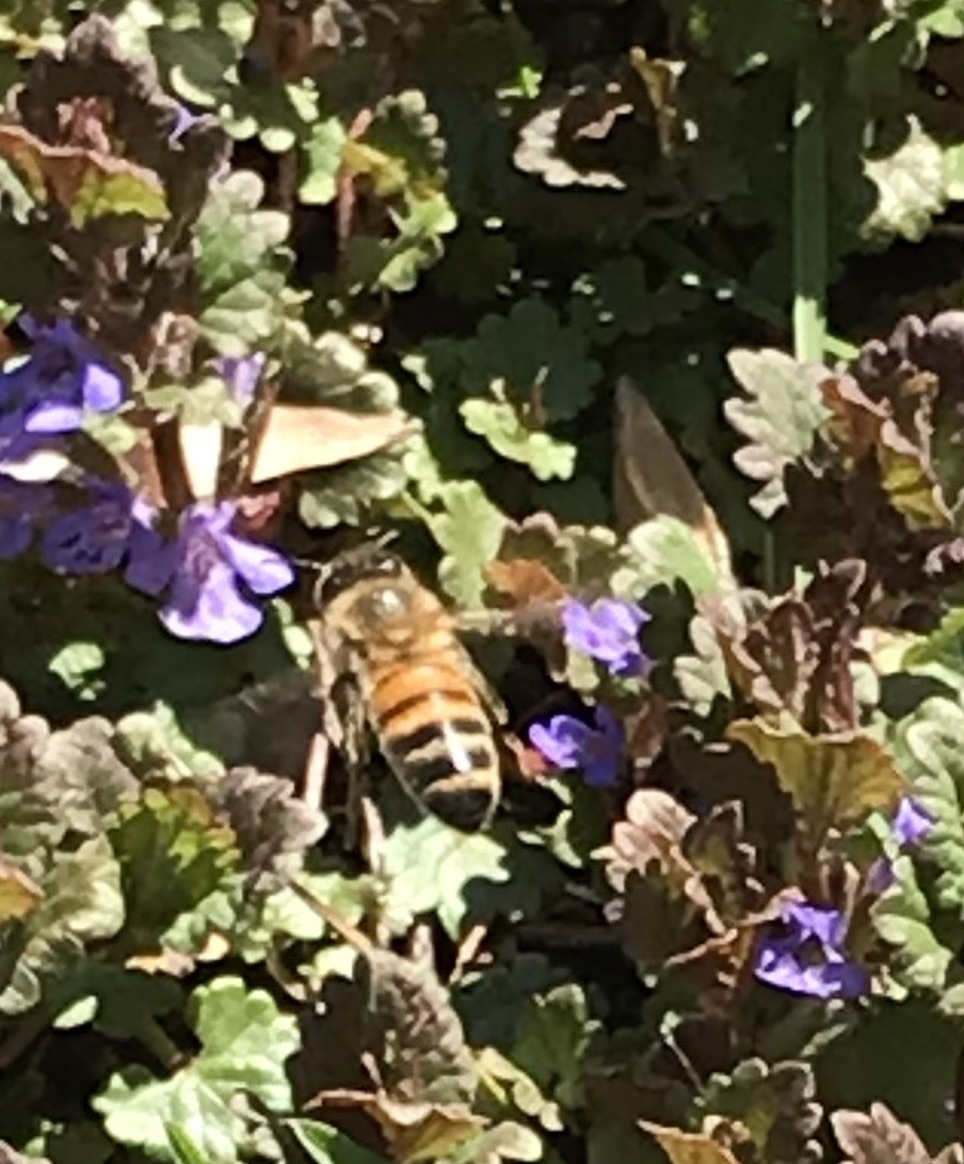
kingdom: Animalia
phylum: Arthropoda
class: Insecta
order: Hymenoptera
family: Apidae
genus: Apis
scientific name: Apis mellifera
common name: Honey bee
